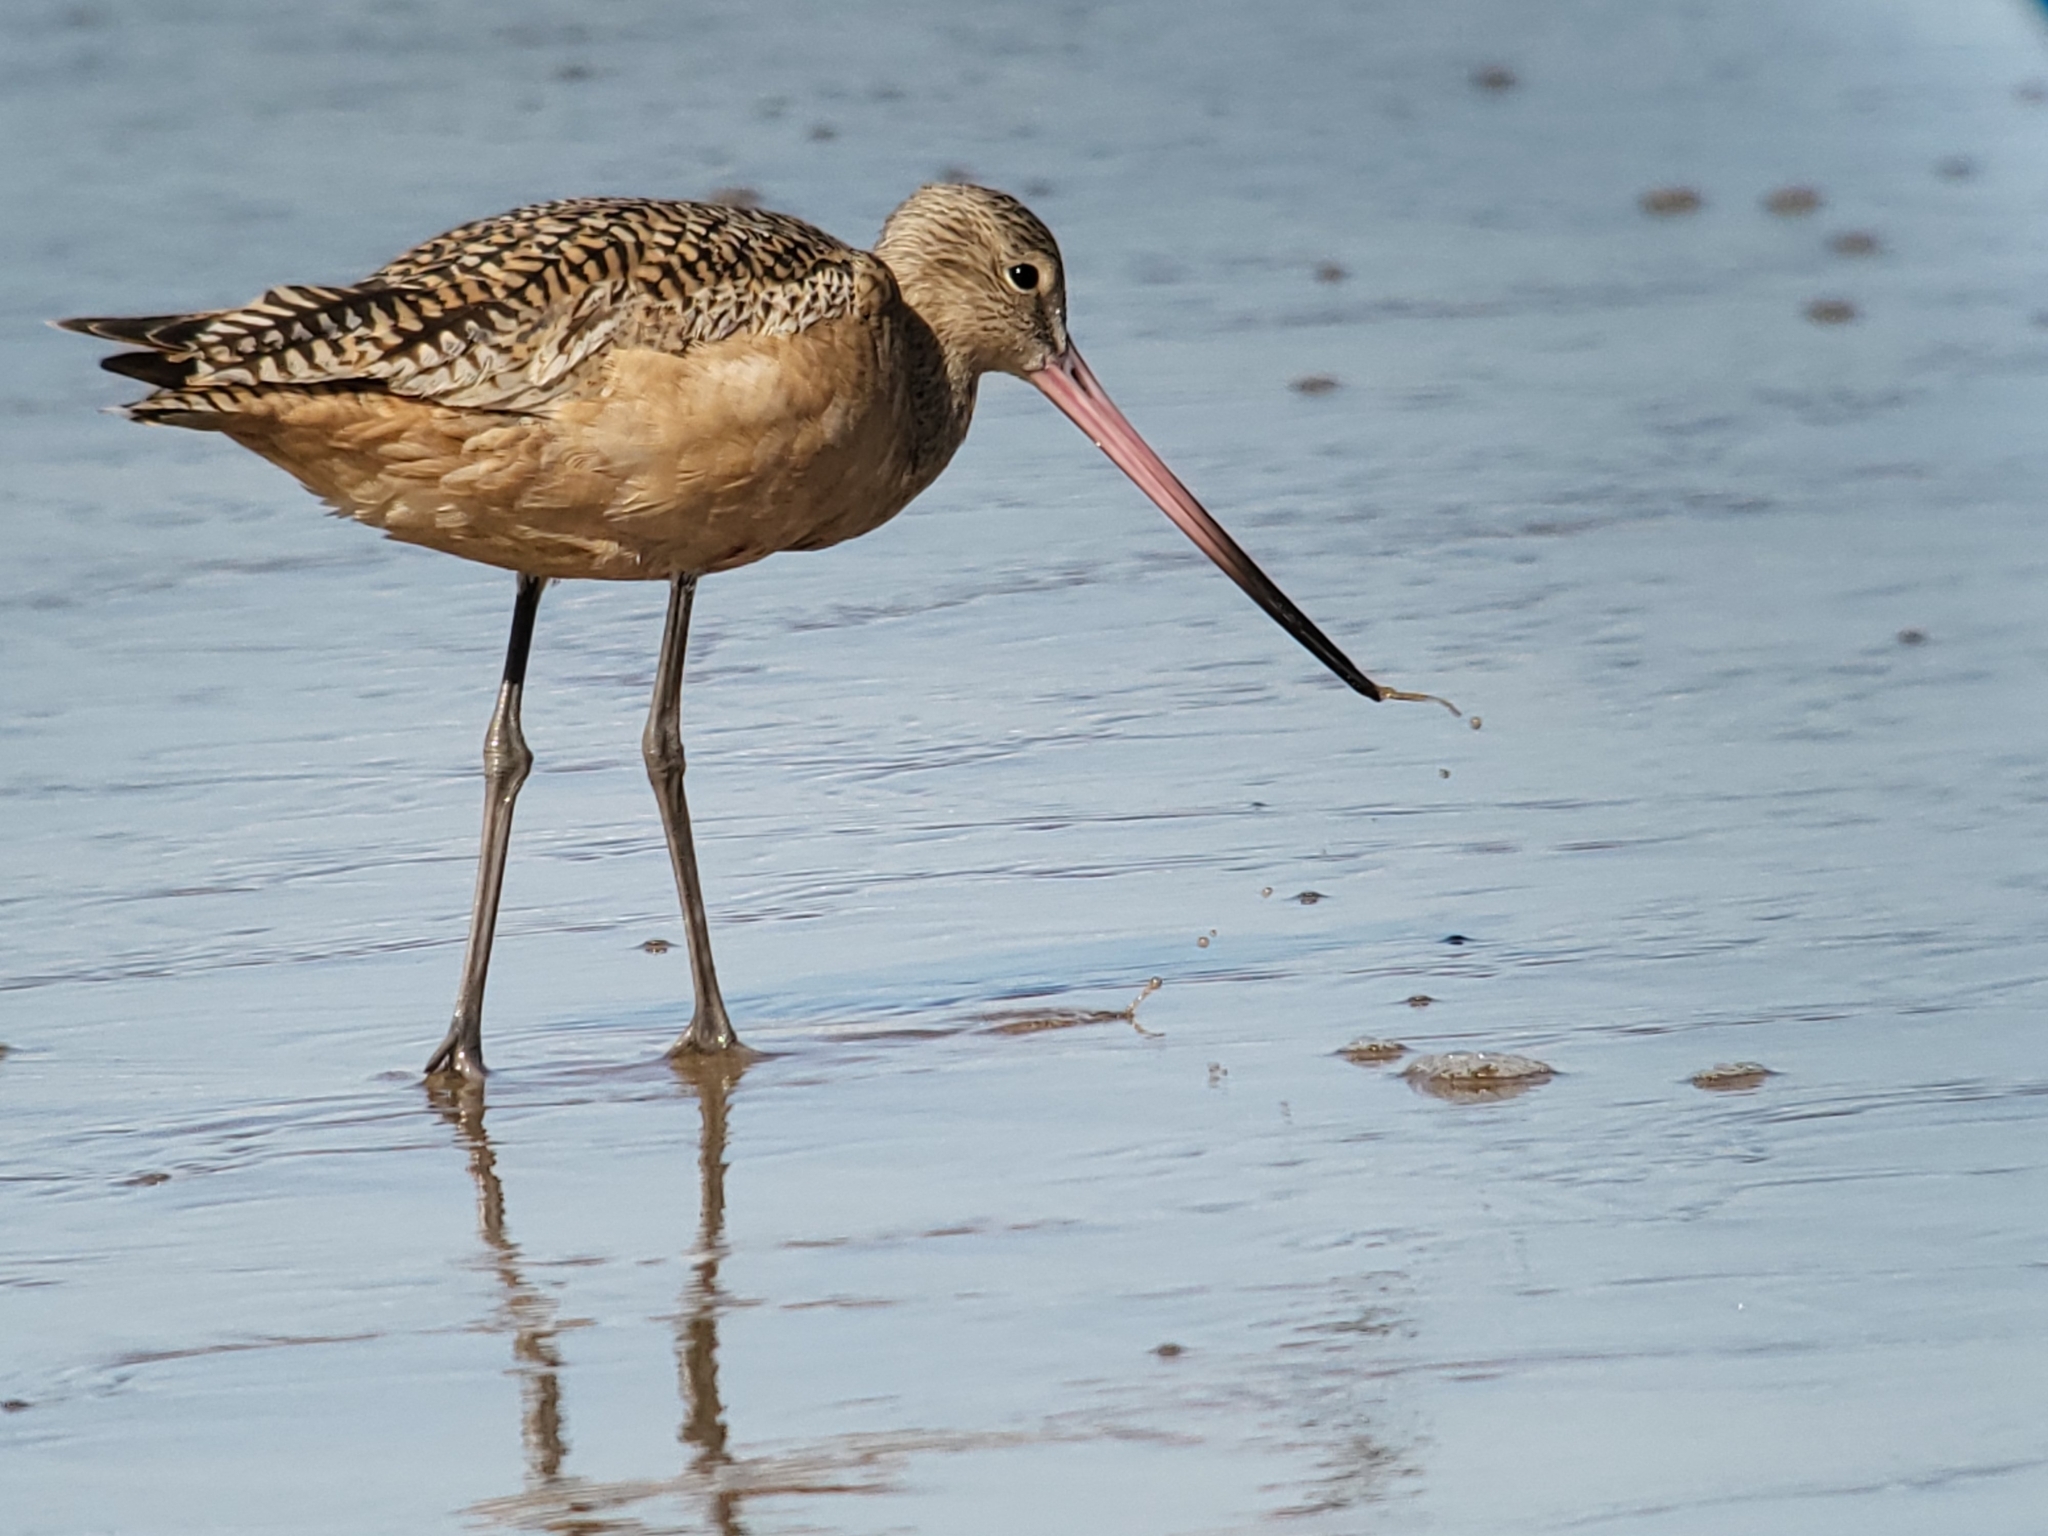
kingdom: Animalia
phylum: Chordata
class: Aves
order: Charadriiformes
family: Scolopacidae
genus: Limosa
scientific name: Limosa fedoa
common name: Marbled godwit
